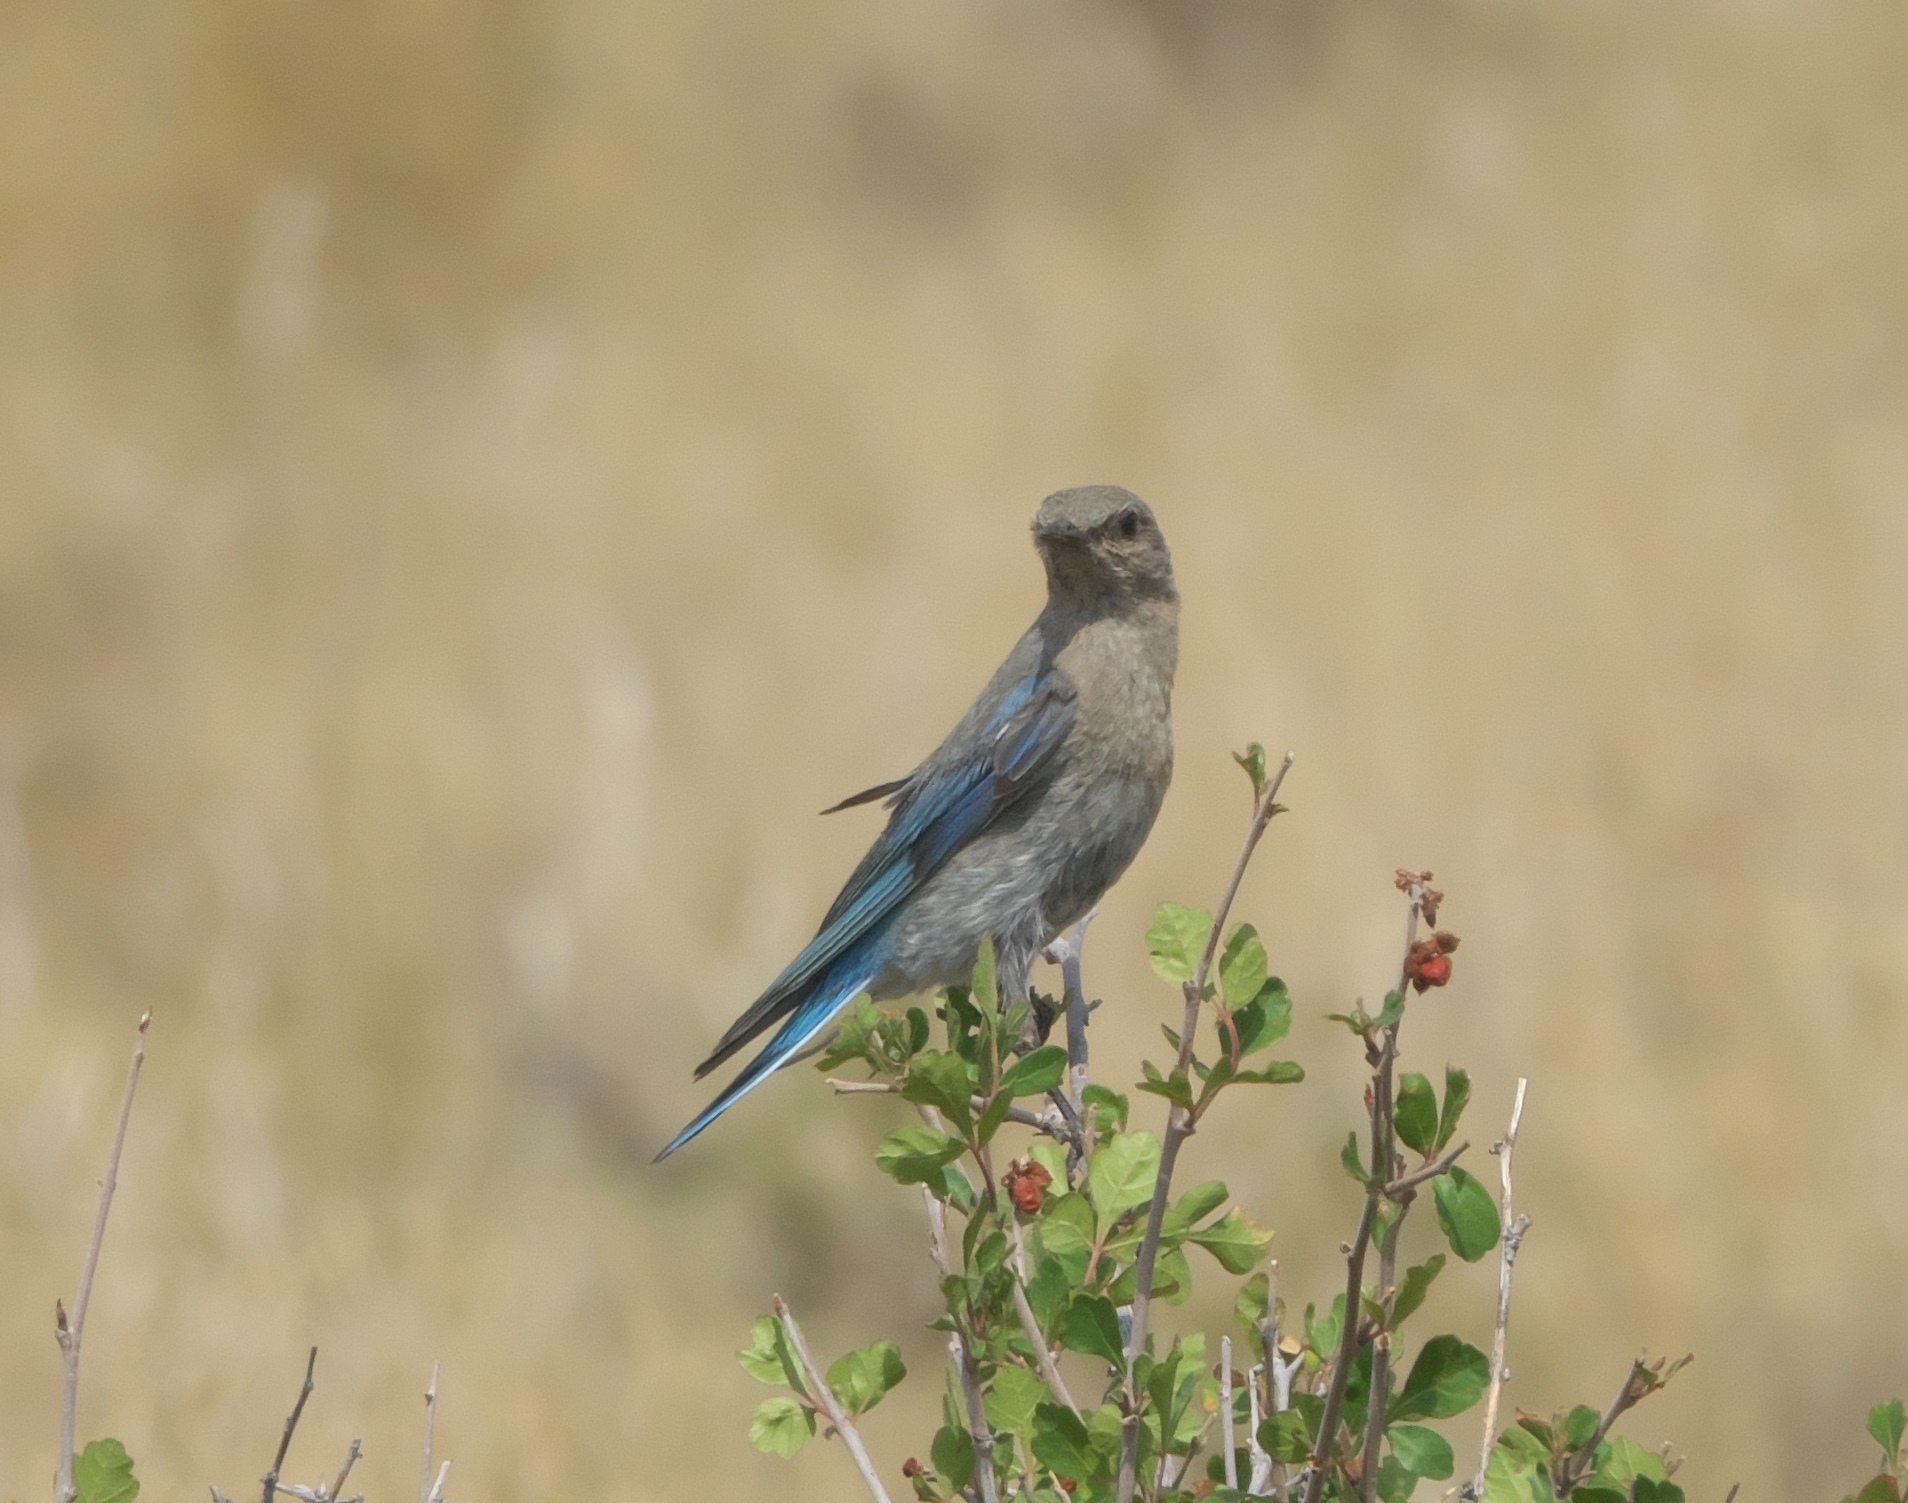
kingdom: Animalia
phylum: Chordata
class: Aves
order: Passeriformes
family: Turdidae
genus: Sialia
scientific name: Sialia currucoides
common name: Mountain bluebird
